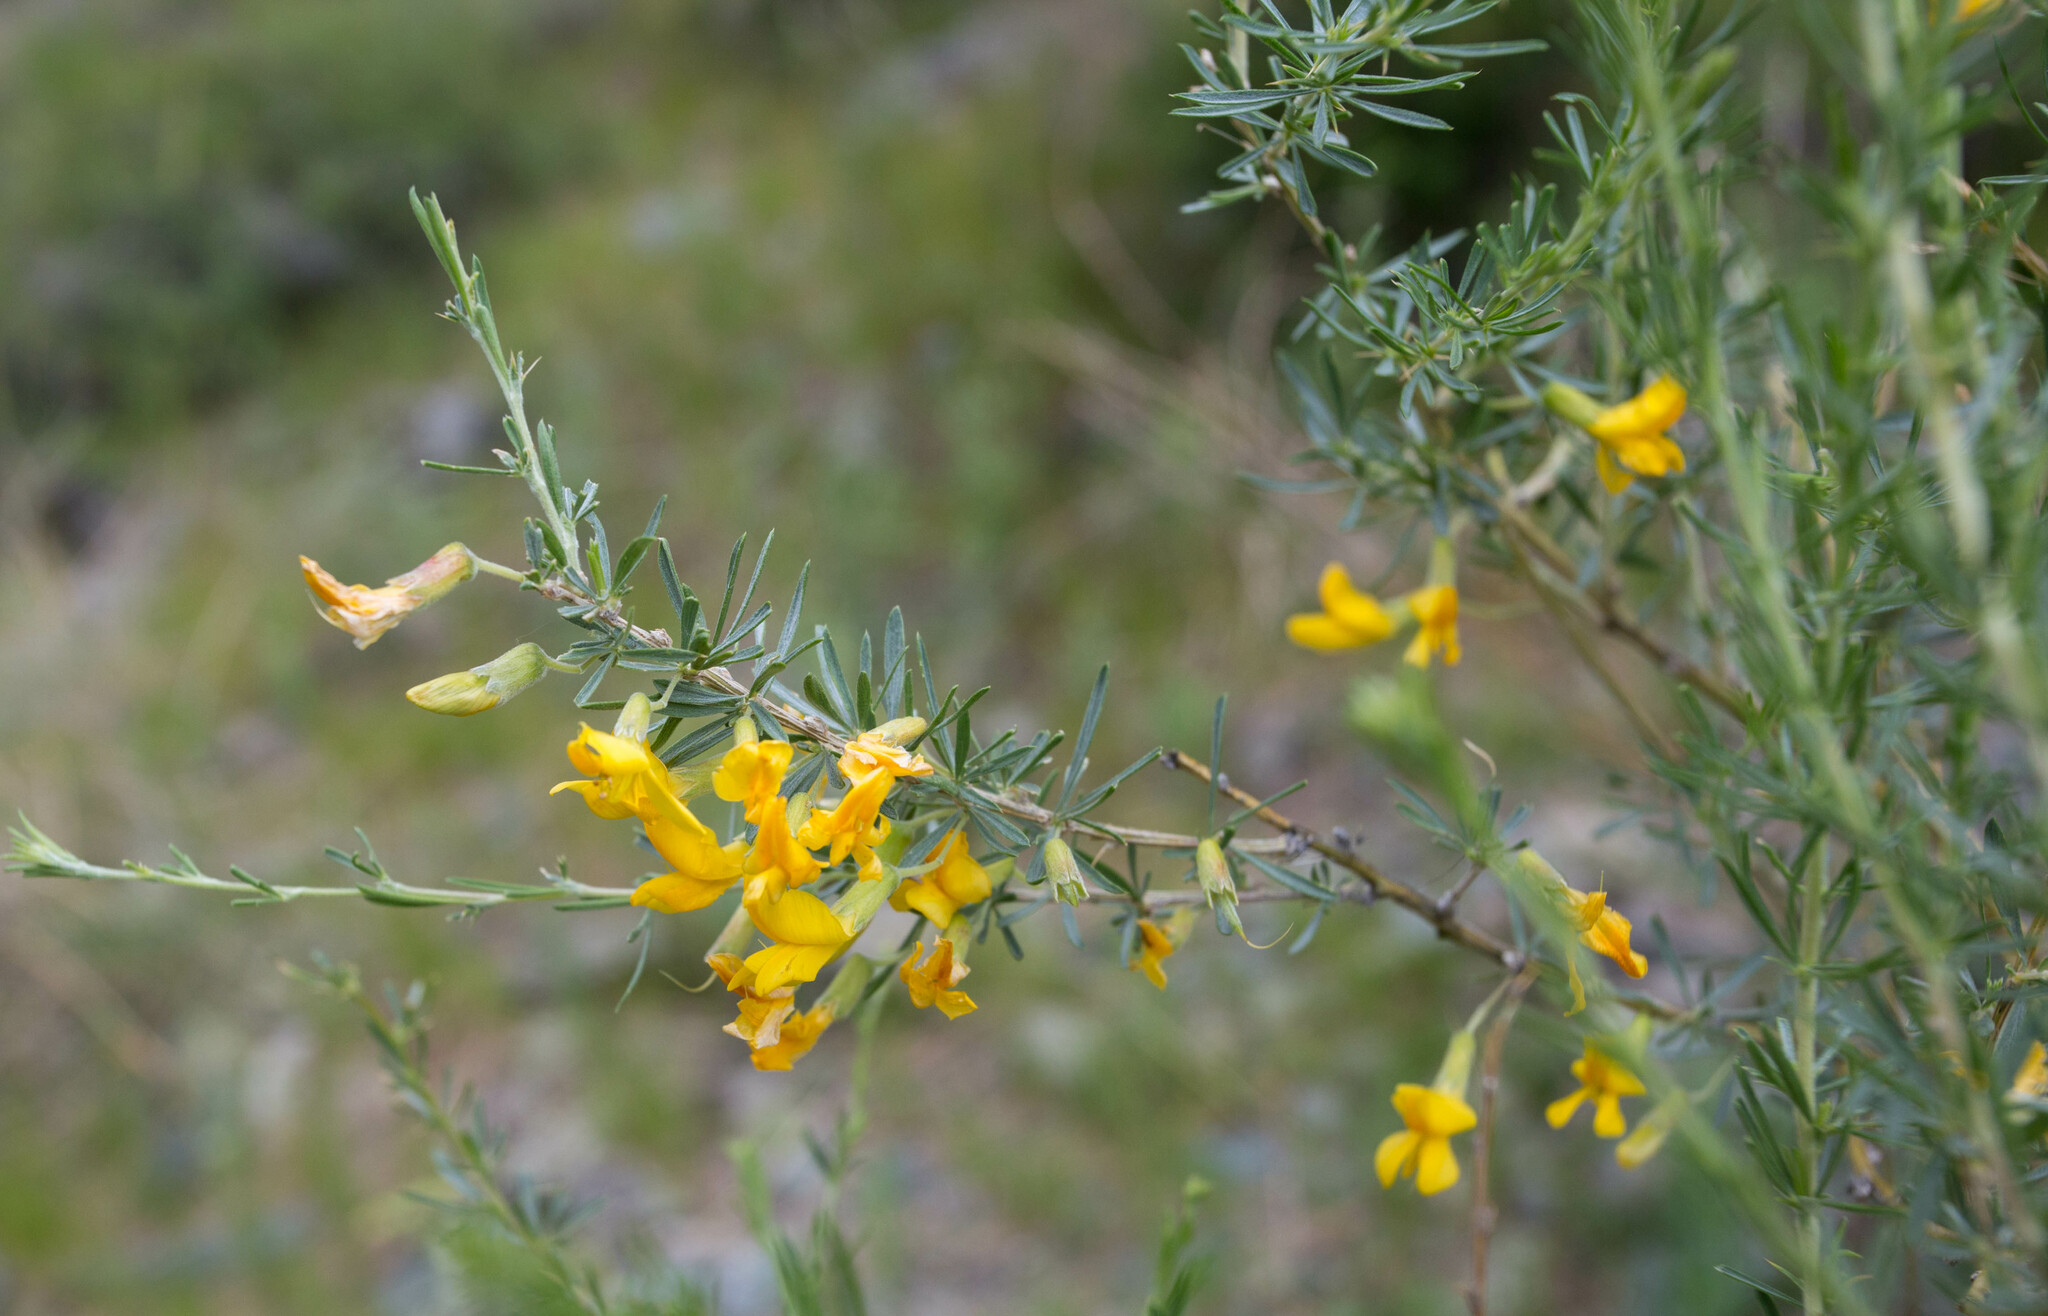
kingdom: Plantae
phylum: Tracheophyta
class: Magnoliopsida
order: Fabales
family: Fabaceae
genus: Caragana
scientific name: Caragana pygmaea
